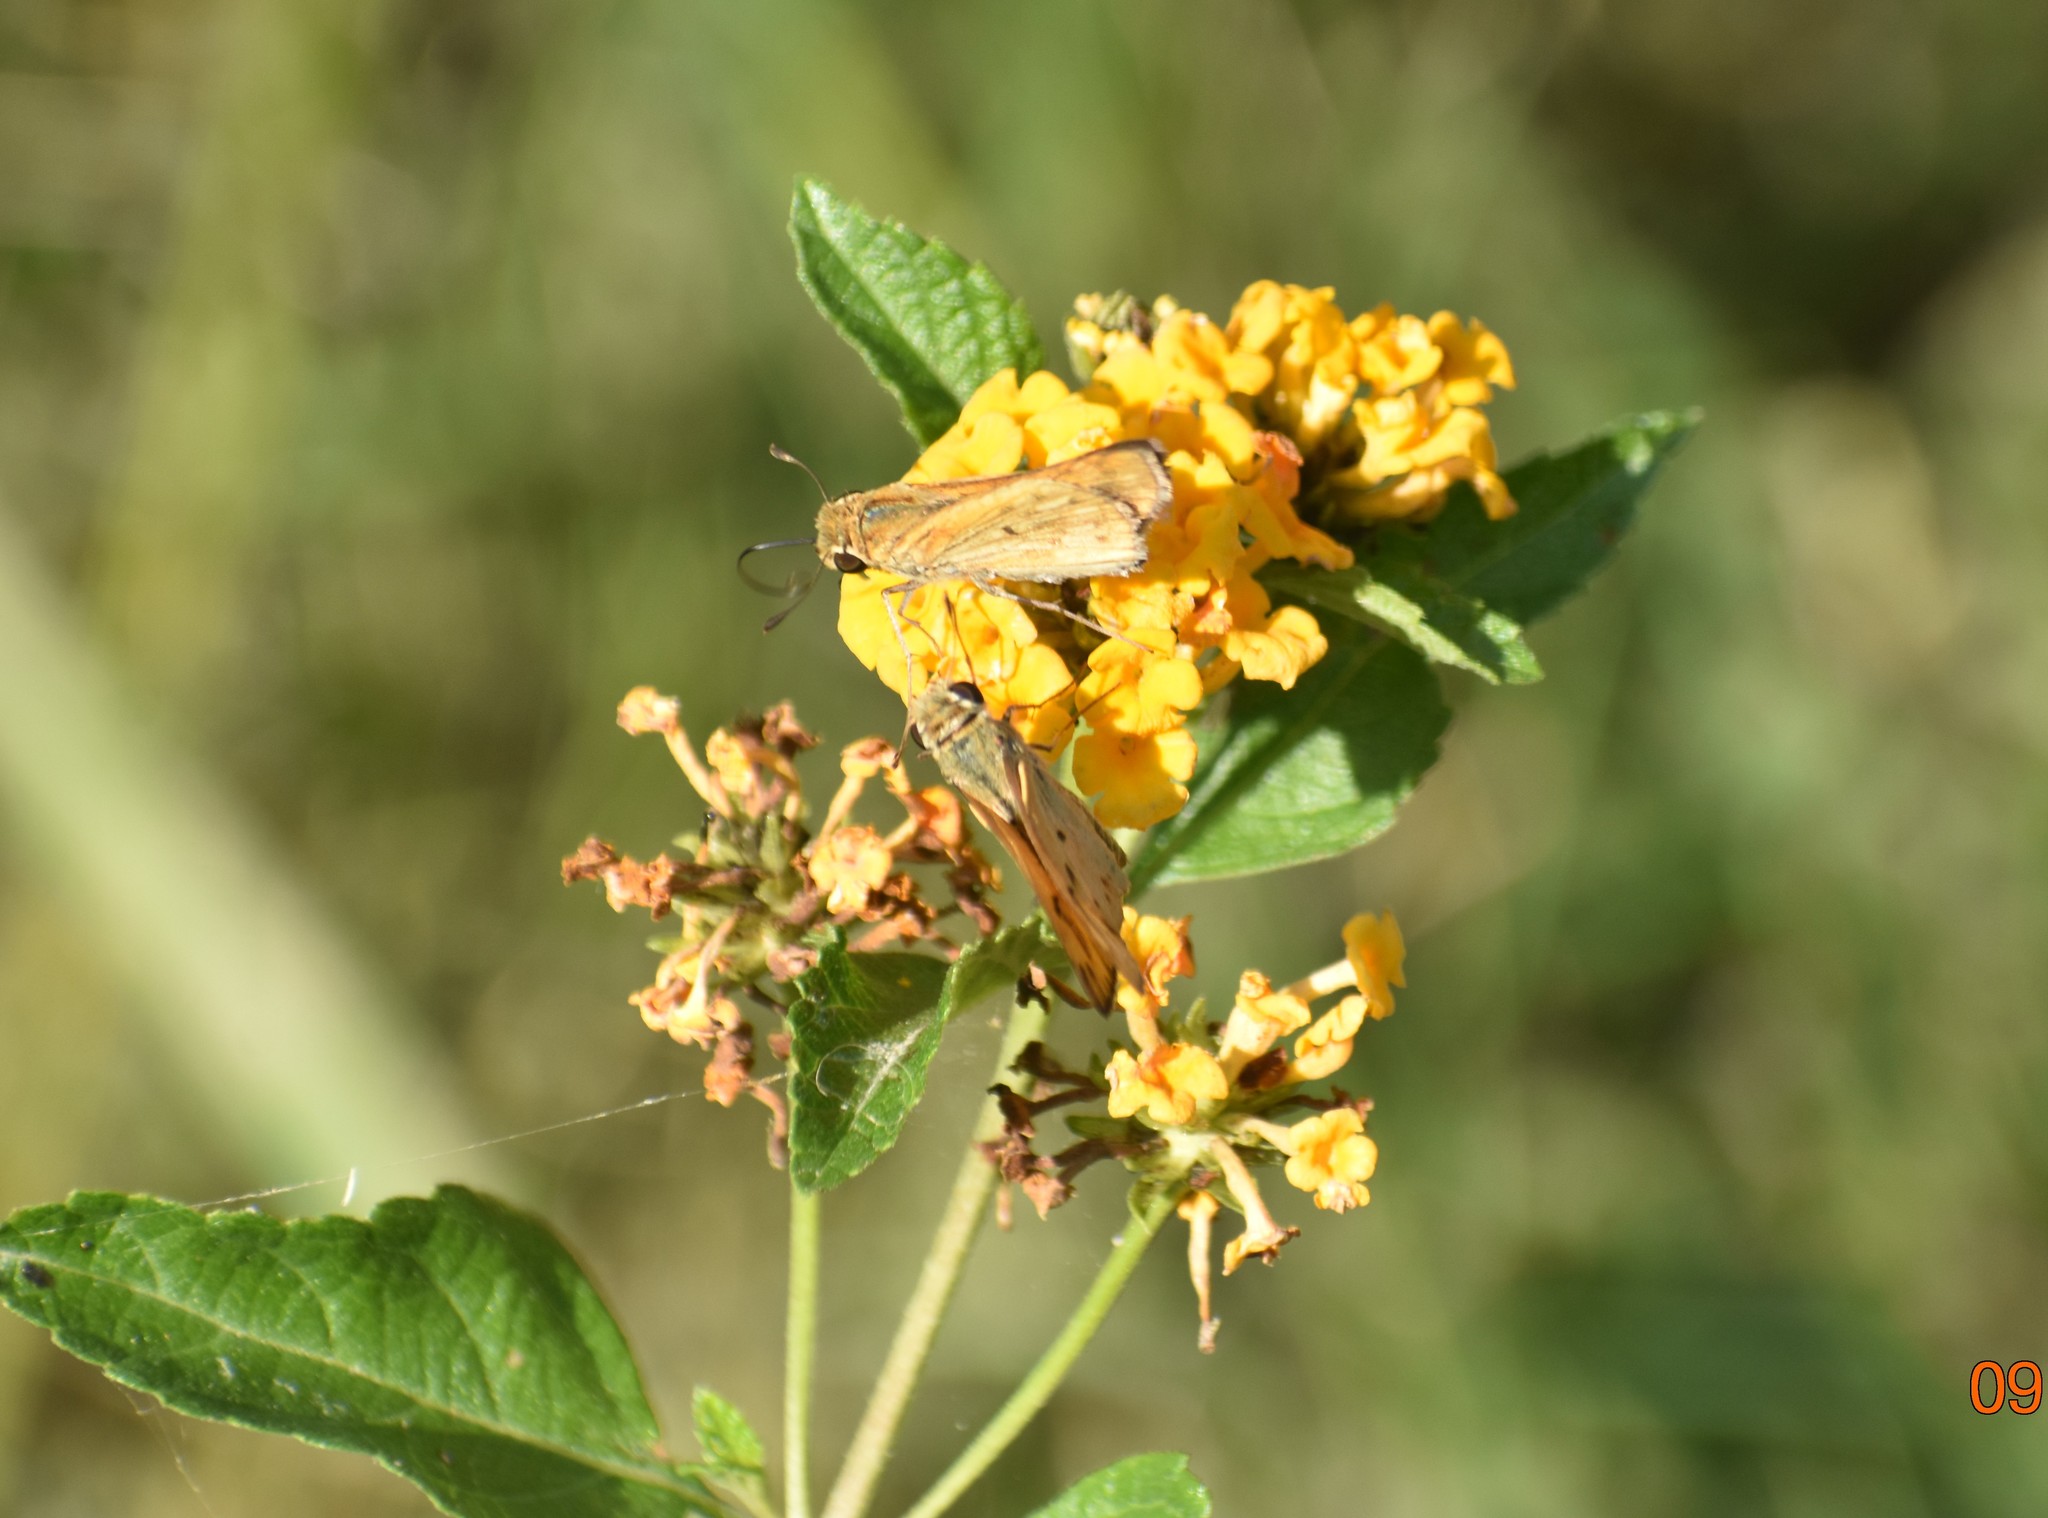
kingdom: Animalia
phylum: Arthropoda
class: Insecta
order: Lepidoptera
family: Hesperiidae
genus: Hylephila
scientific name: Hylephila phyleus
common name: Fiery skipper
